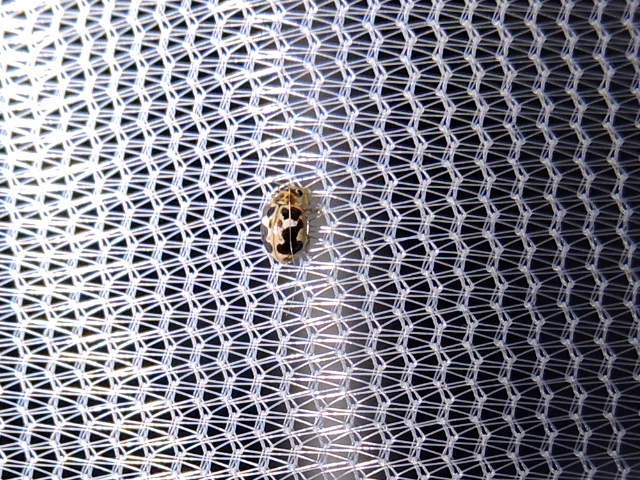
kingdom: Animalia
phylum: Arthropoda
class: Insecta
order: Coleoptera
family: Coccinellidae
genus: Psyllobora
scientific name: Psyllobora renifer
